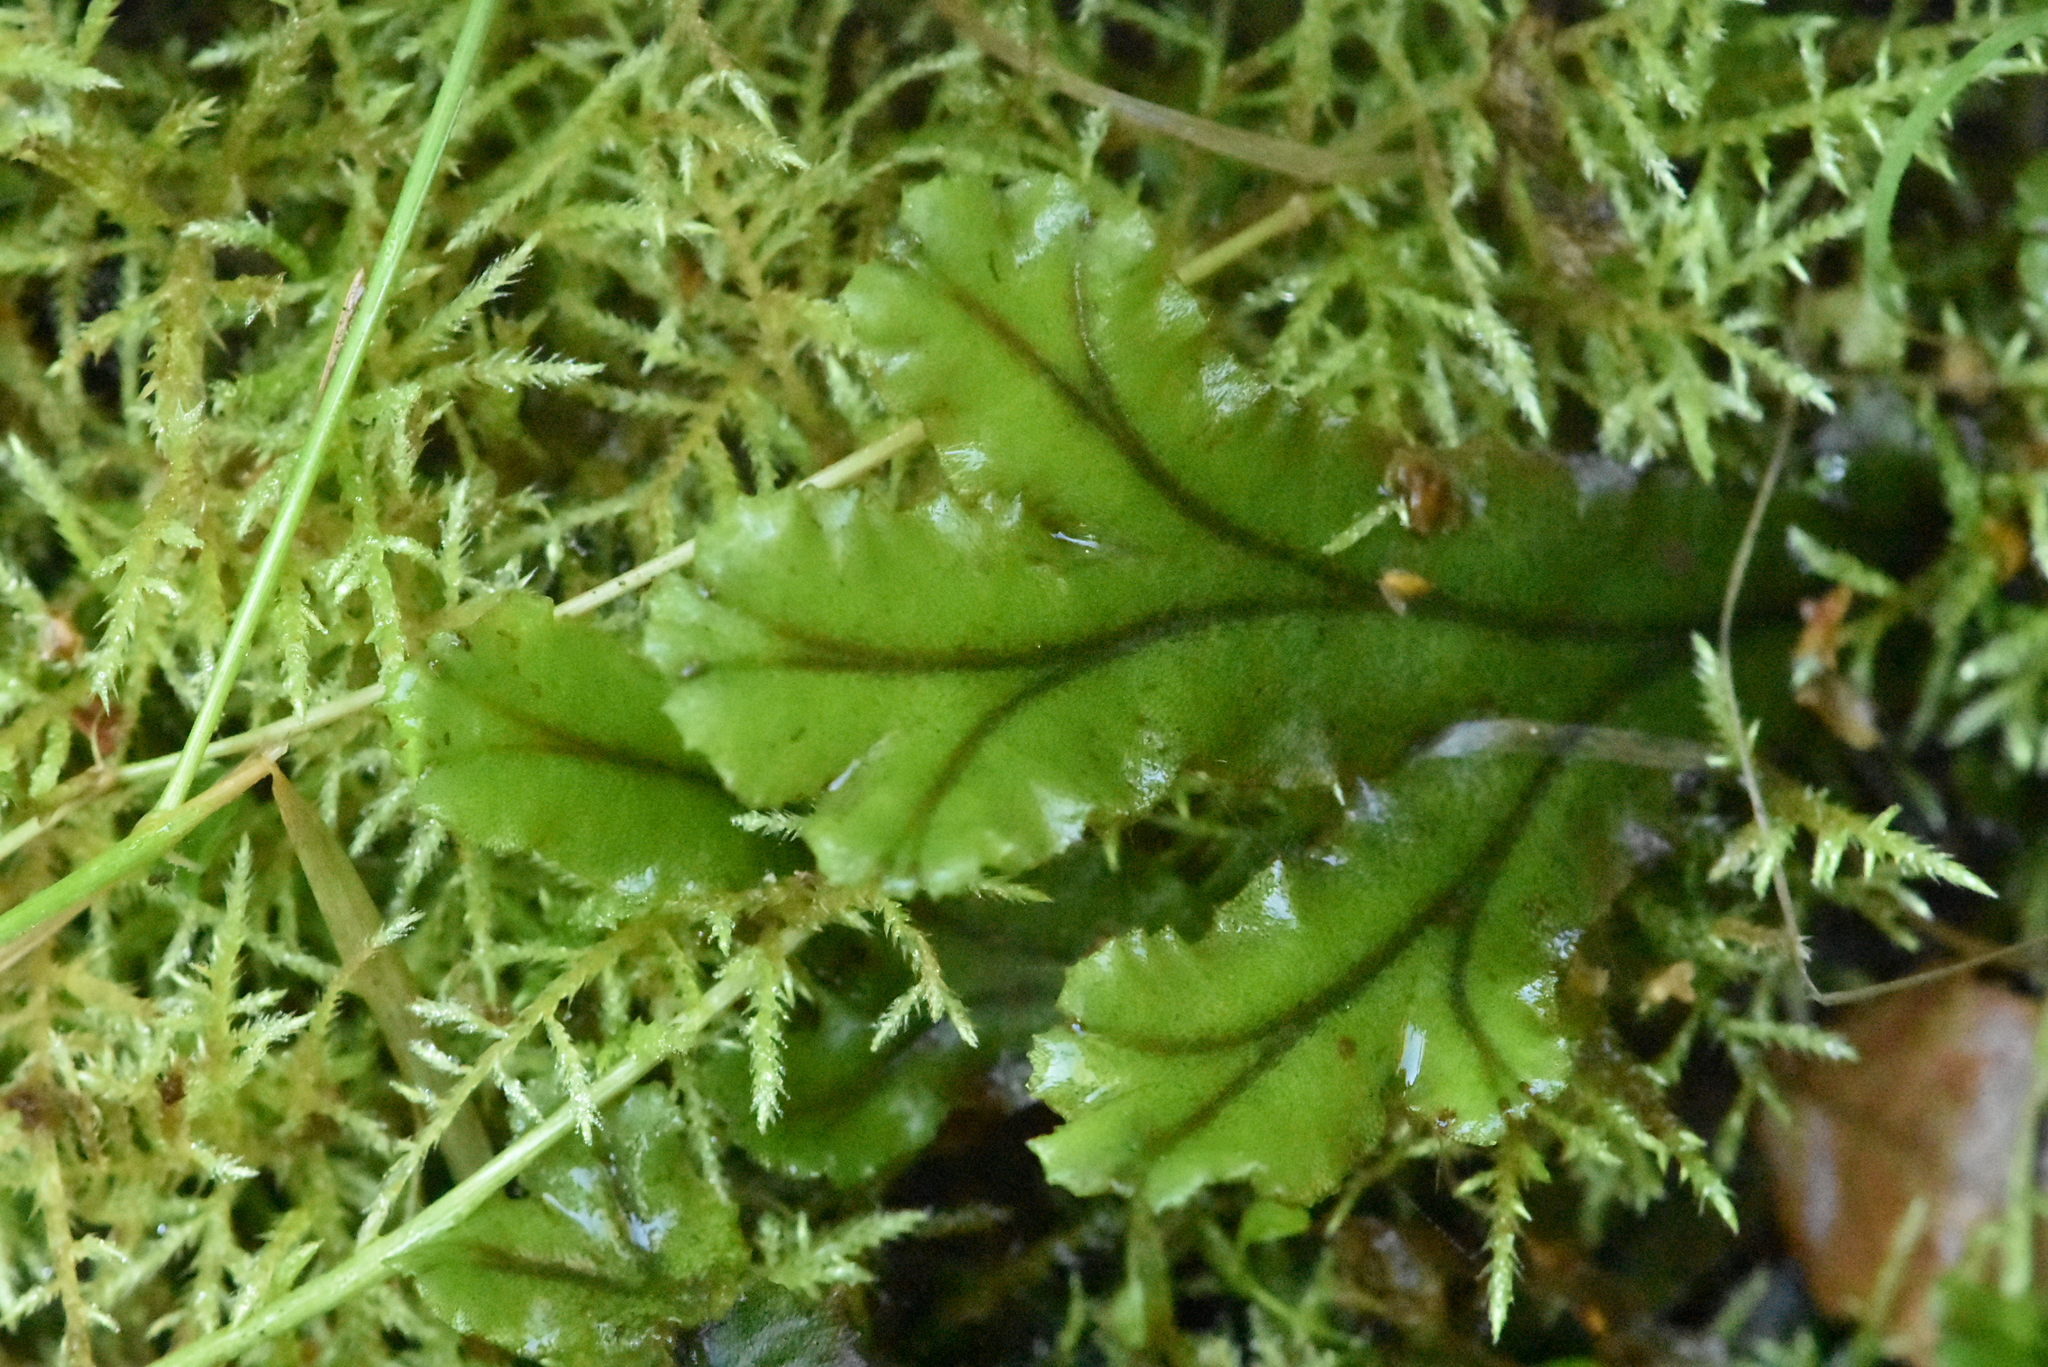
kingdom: Plantae
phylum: Marchantiophyta
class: Marchantiopsida
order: Marchantiales
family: Marchantiaceae
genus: Marchantia
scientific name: Marchantia polymorpha
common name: Common liverwort
